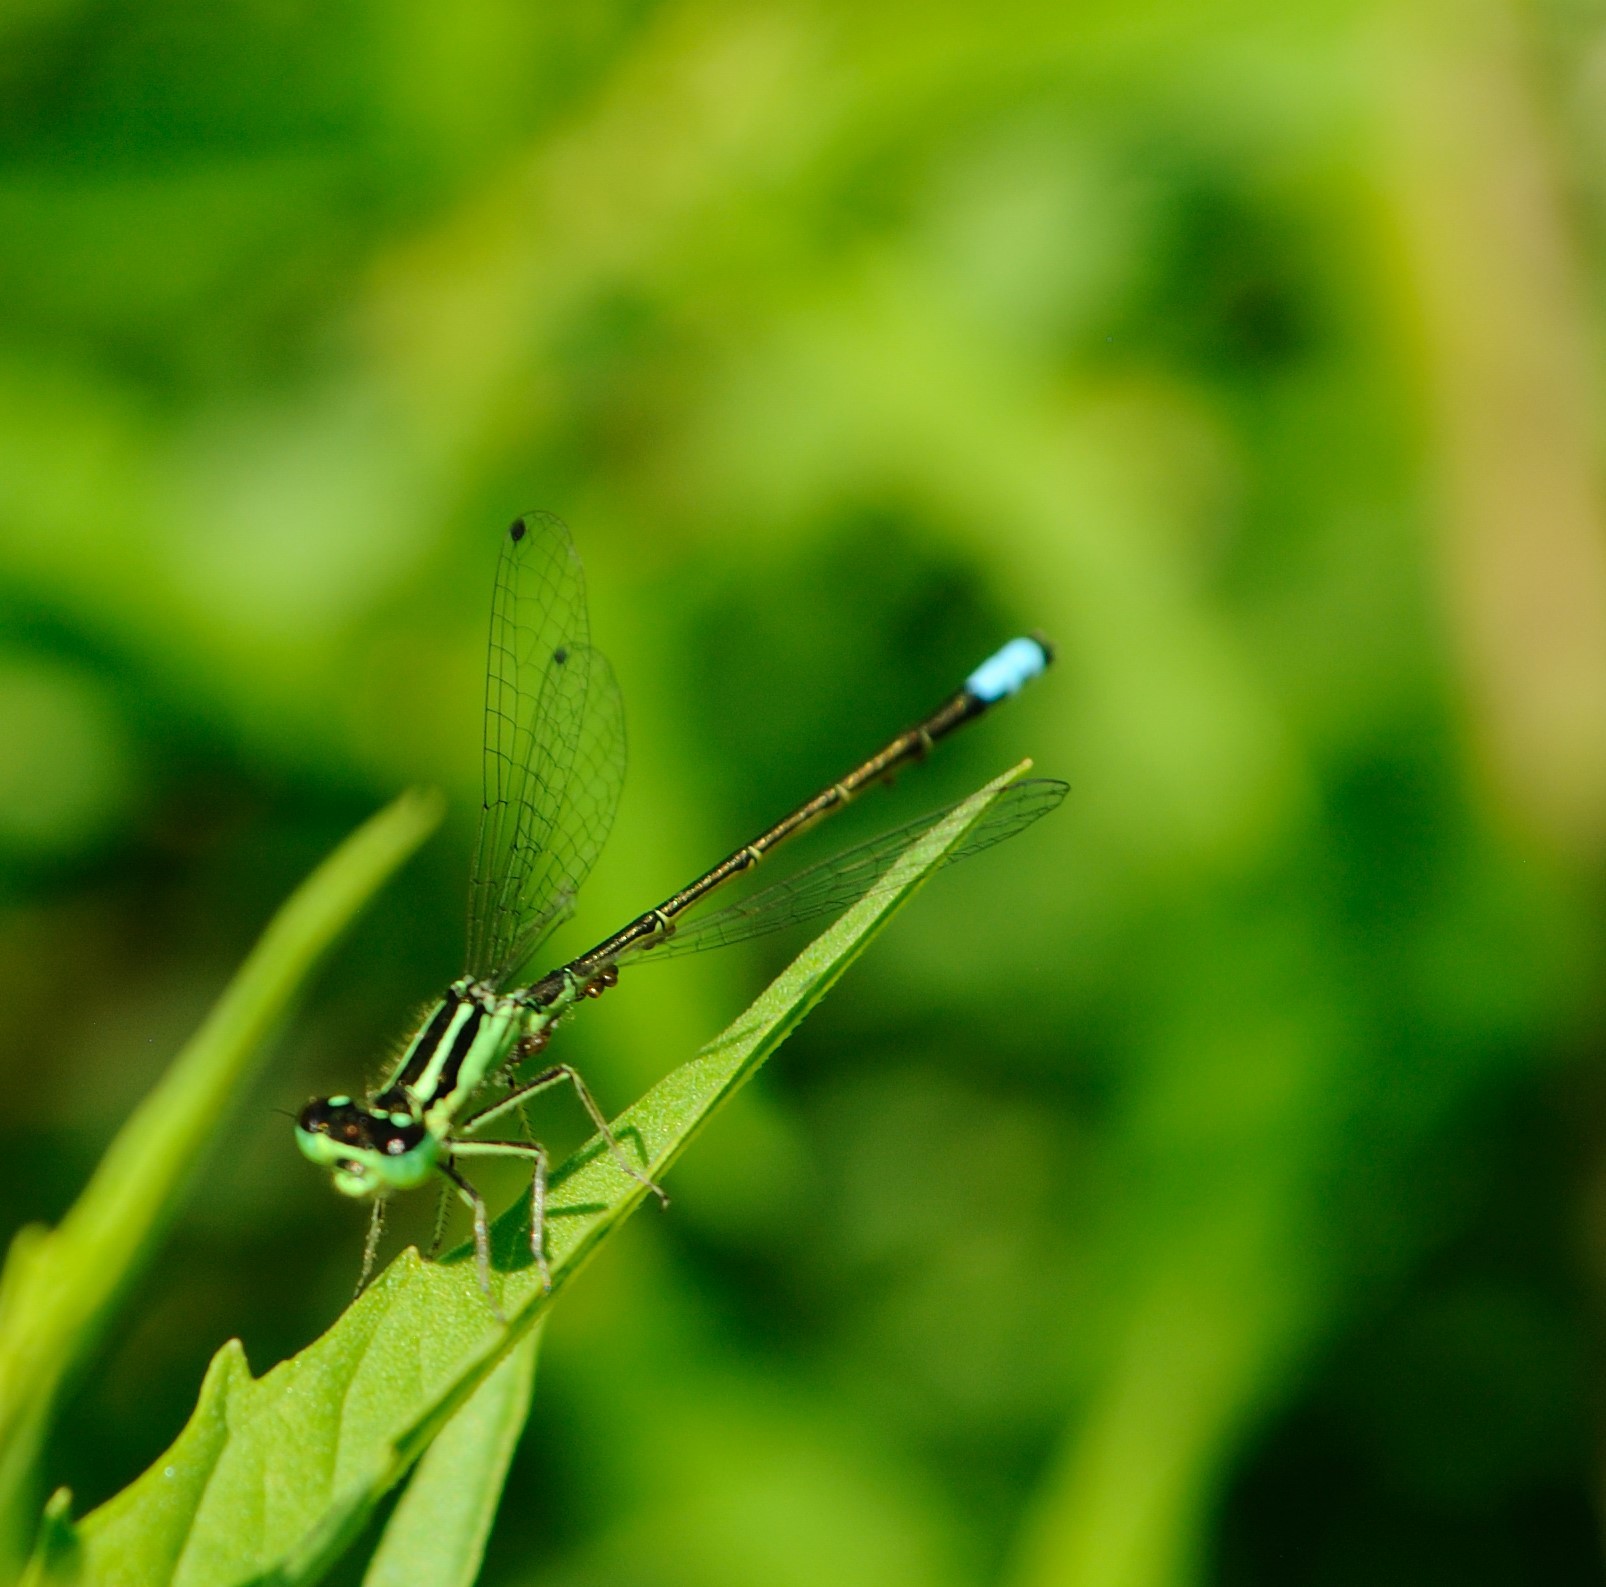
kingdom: Animalia
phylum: Arthropoda
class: Insecta
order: Odonata
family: Coenagrionidae
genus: Ischnura
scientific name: Ischnura verticalis
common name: Eastern forktail
